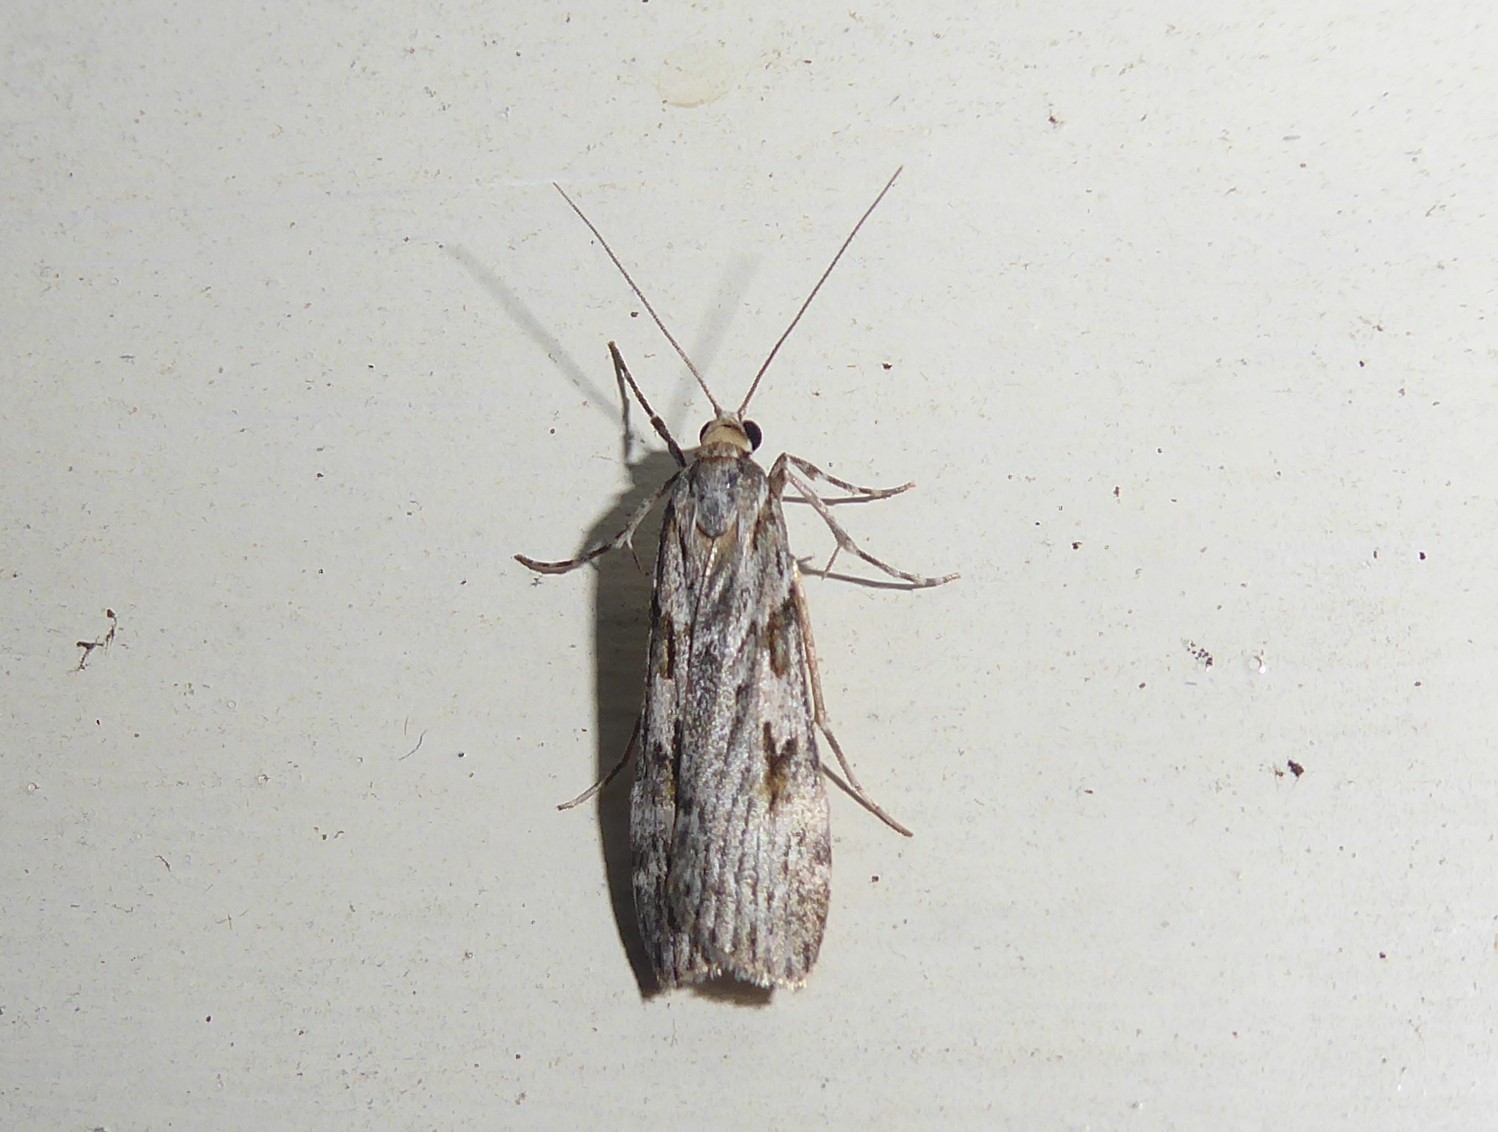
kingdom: Animalia
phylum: Arthropoda
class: Insecta
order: Lepidoptera
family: Crambidae
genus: Scoparia
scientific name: Scoparia halopis
